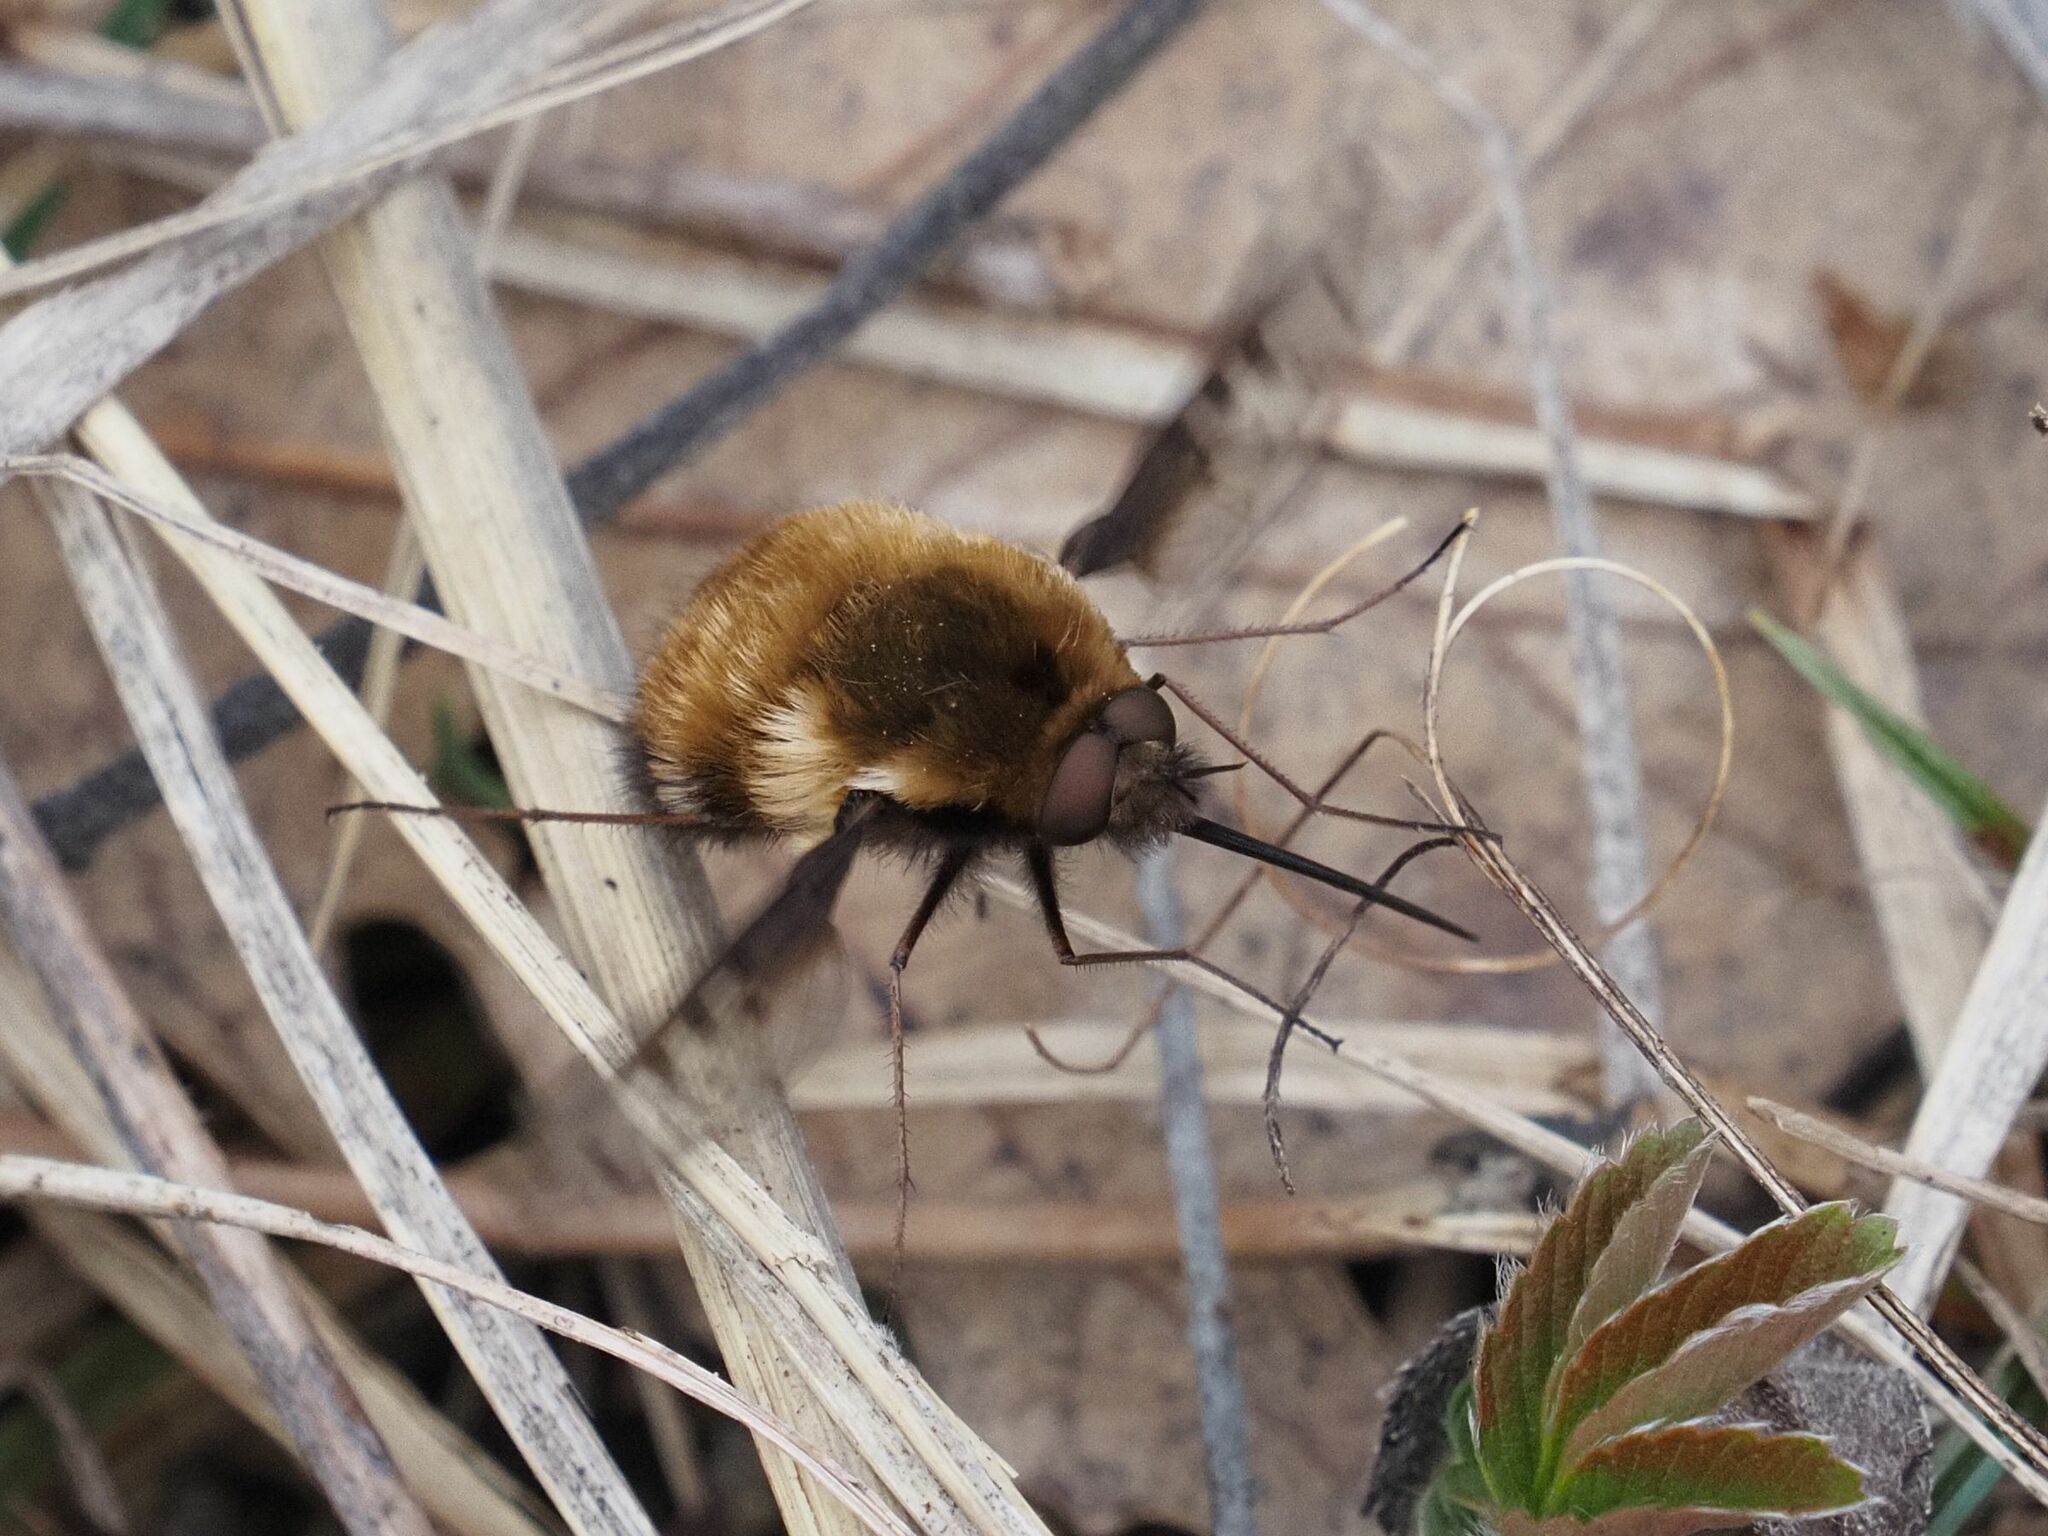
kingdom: Animalia
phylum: Arthropoda
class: Insecta
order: Diptera
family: Bombyliidae
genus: Bombylius
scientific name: Bombylius discolor
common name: Dotted bee-fly
